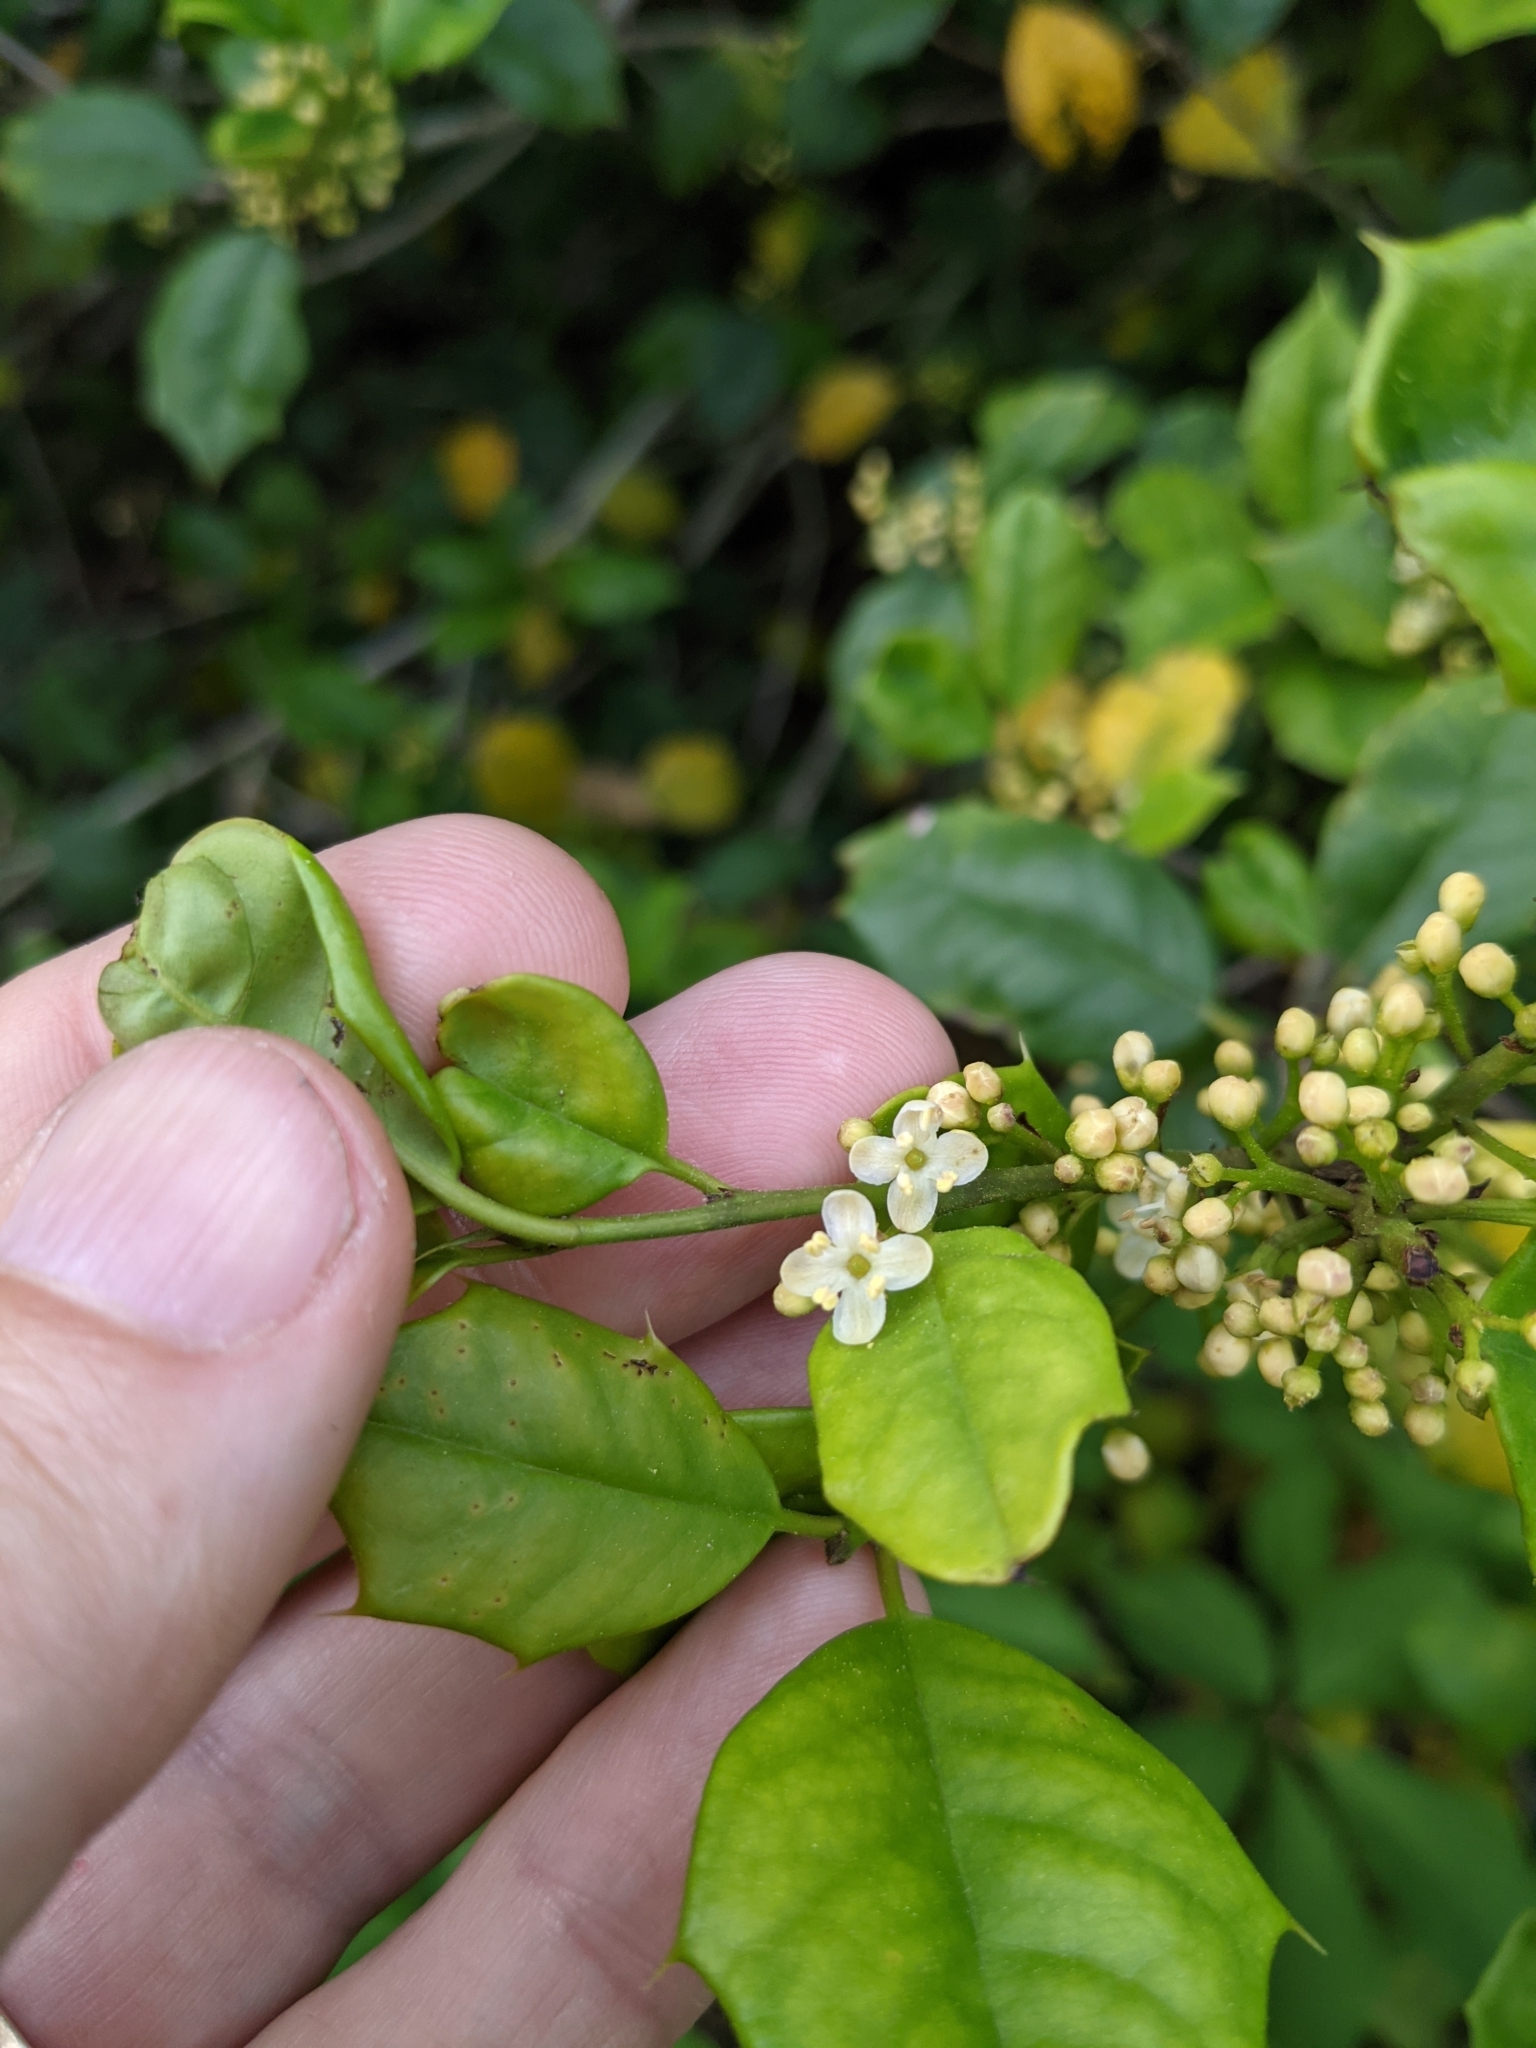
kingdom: Plantae
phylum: Tracheophyta
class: Magnoliopsida
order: Aquifoliales
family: Aquifoliaceae
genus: Ilex
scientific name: Ilex opaca
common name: American holly
